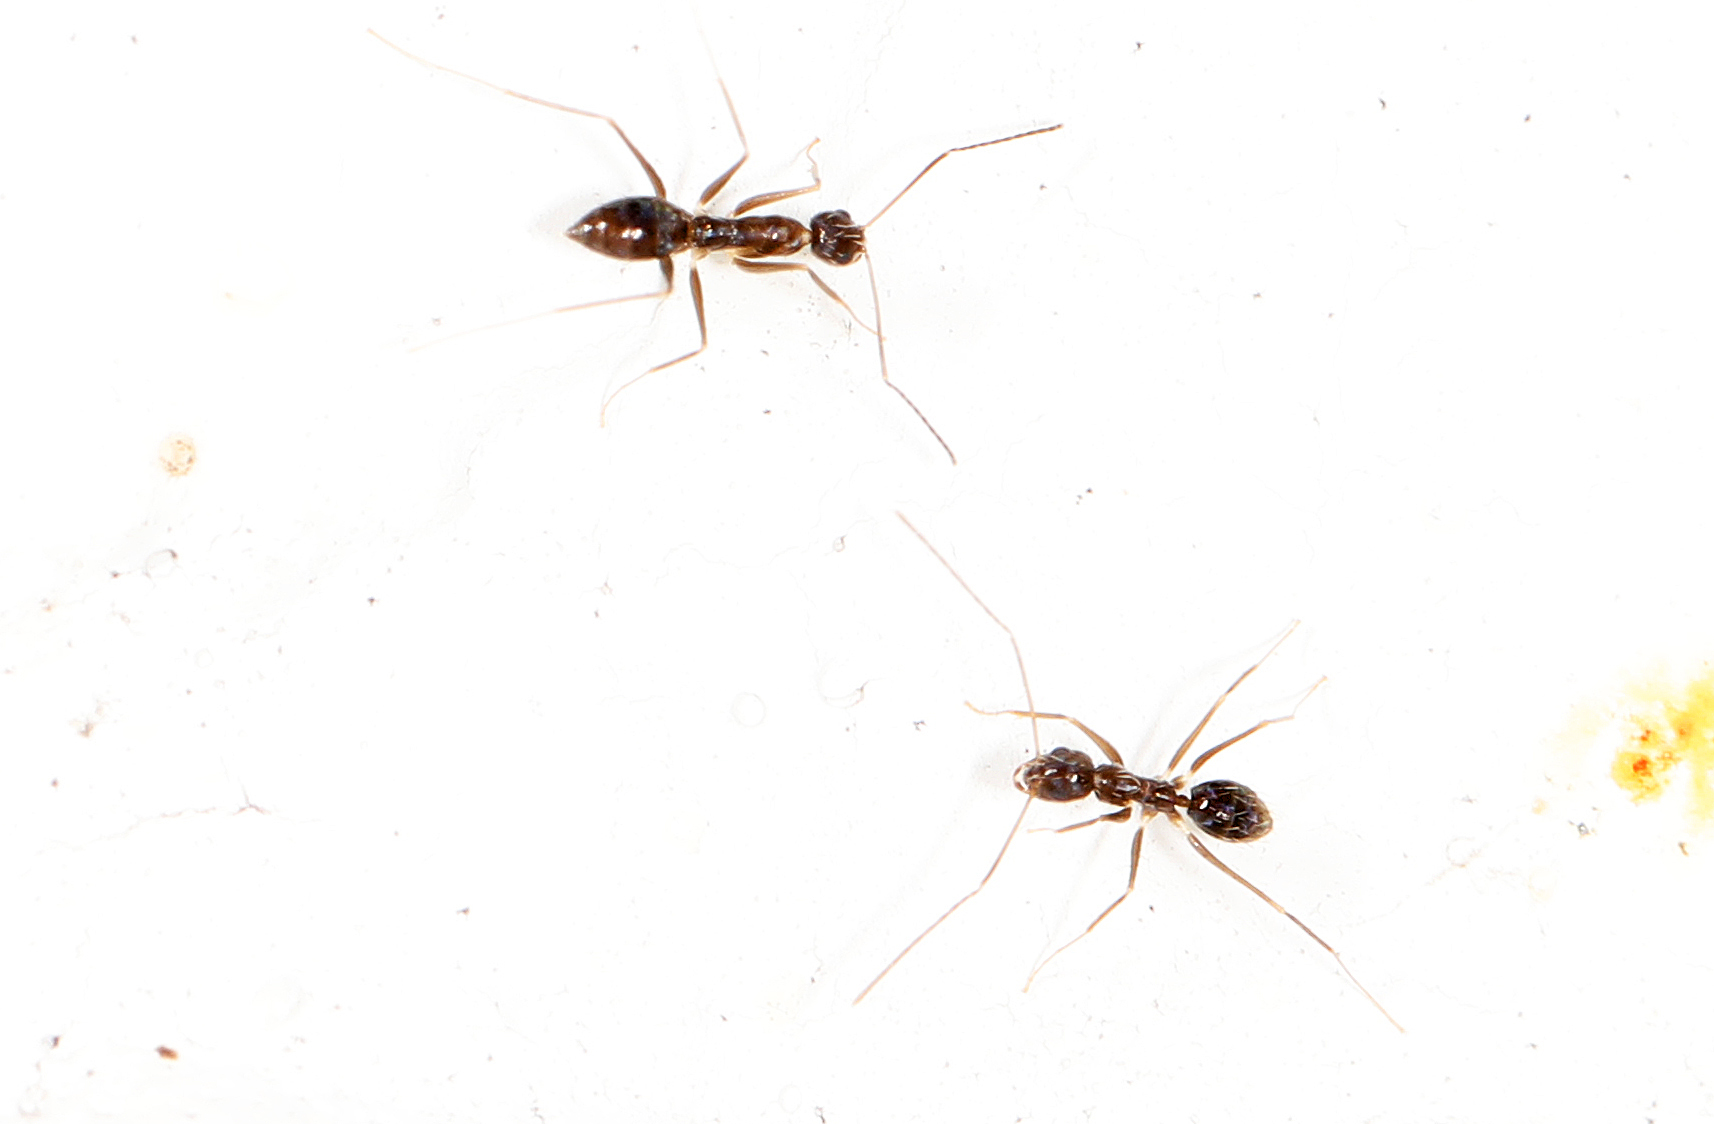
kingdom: Animalia
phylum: Arthropoda
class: Insecta
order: Hymenoptera
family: Formicidae
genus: Paratrechina
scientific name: Paratrechina longicornis
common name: Longhorned crazy ant
